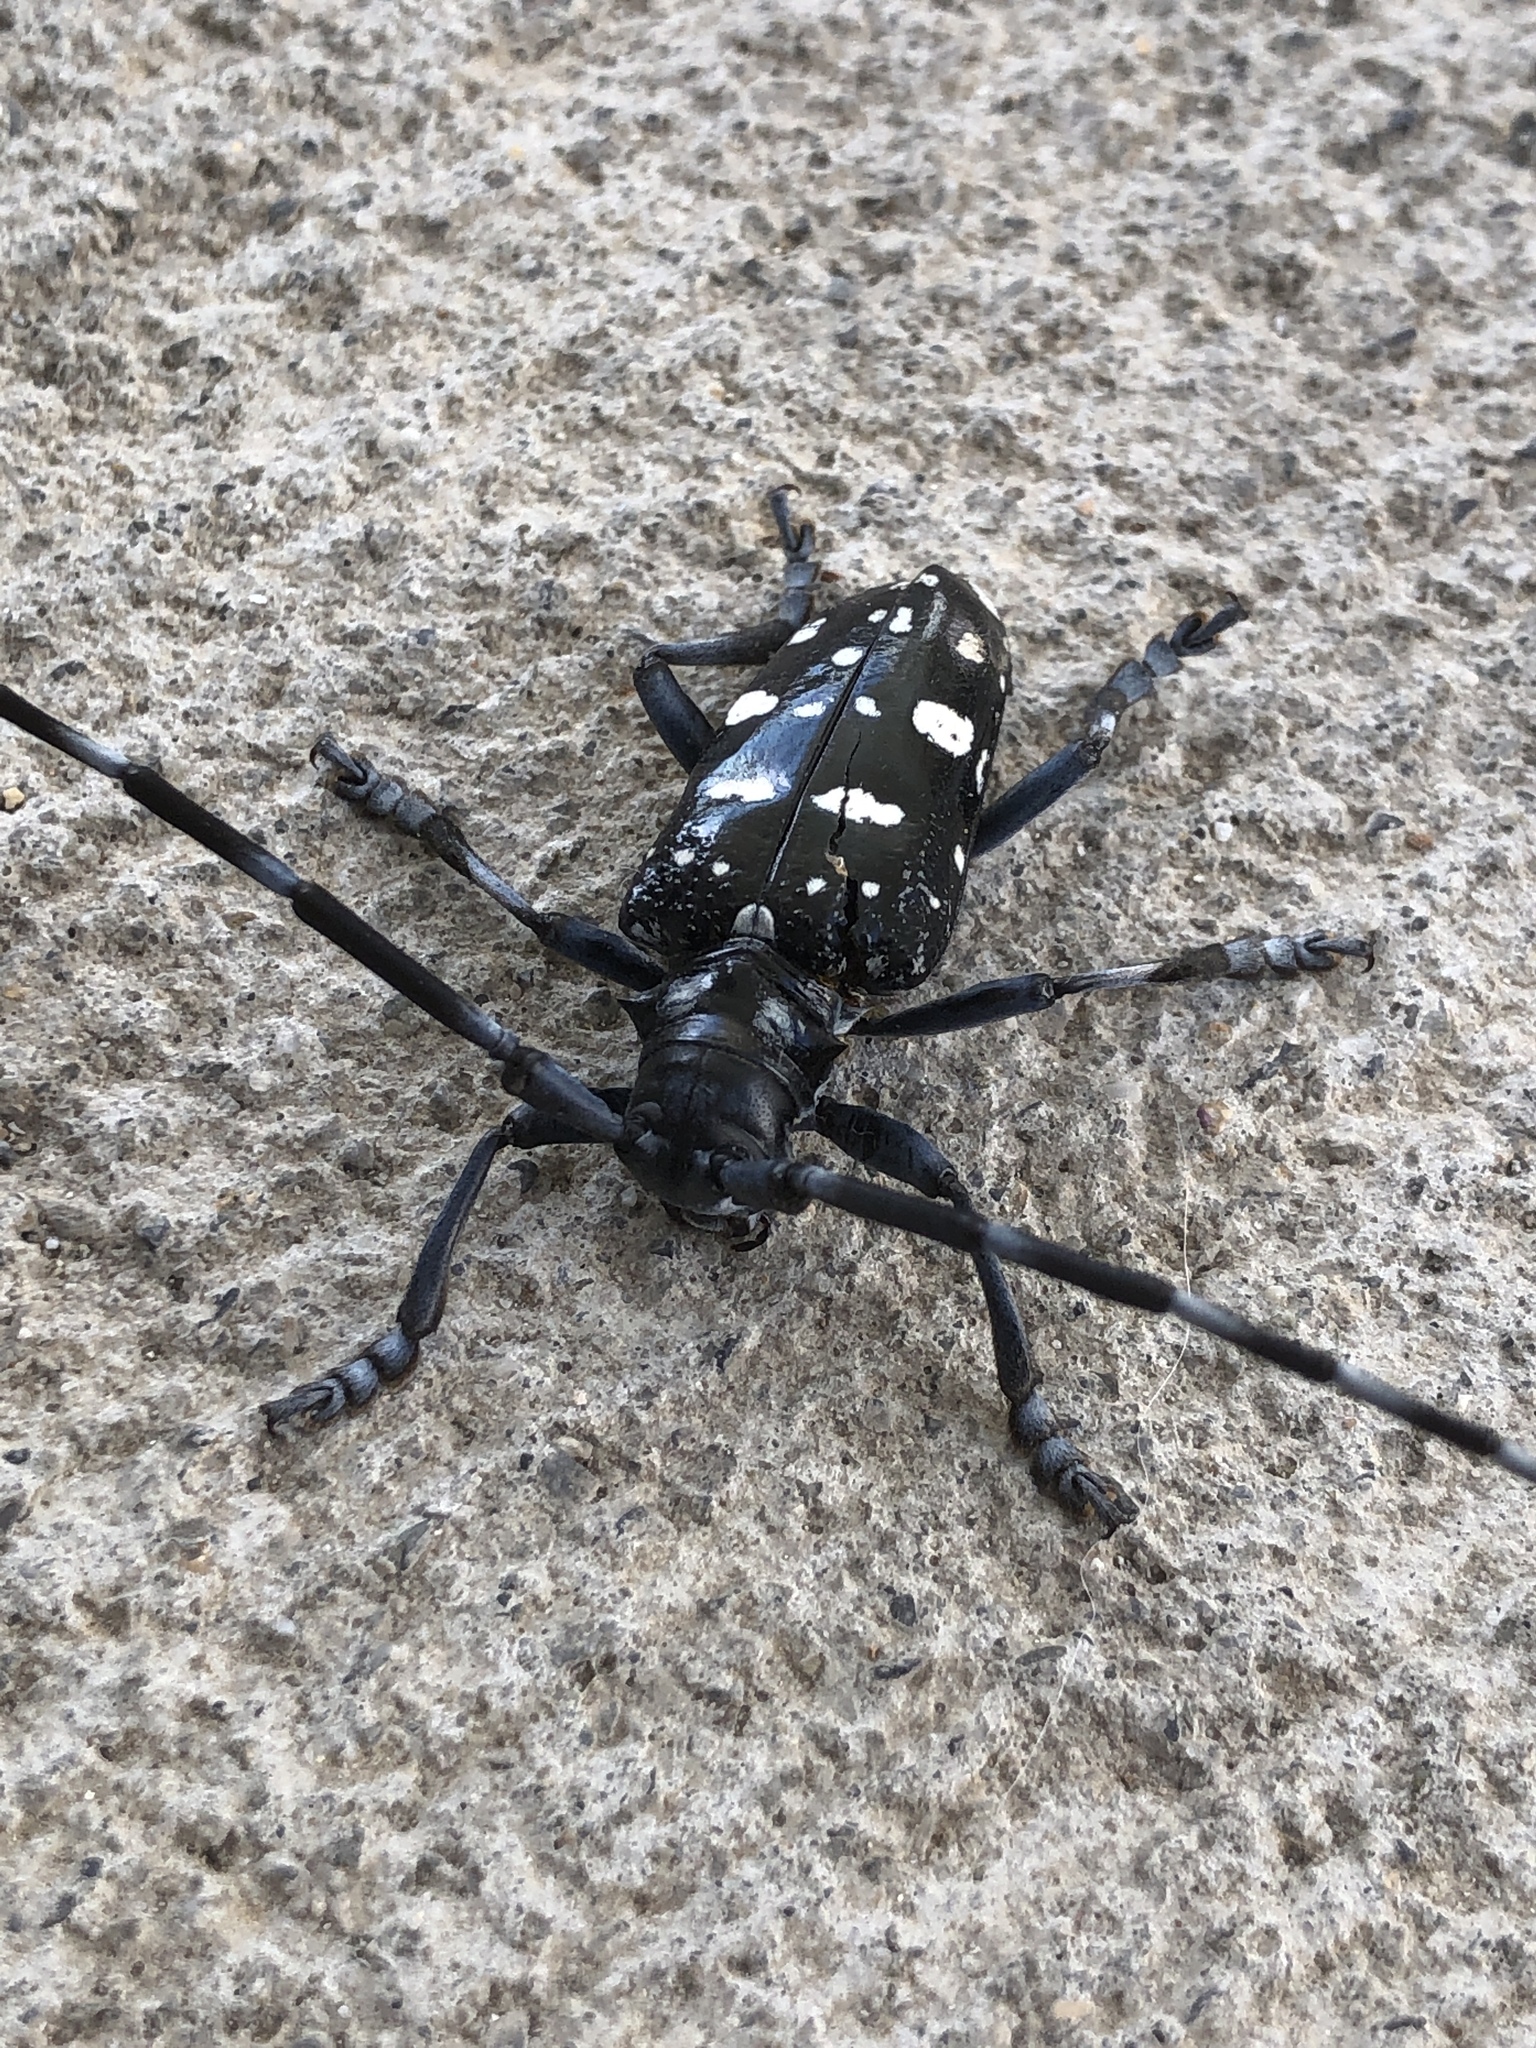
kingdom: Animalia
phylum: Arthropoda
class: Insecta
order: Coleoptera
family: Cerambycidae
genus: Anoplophora
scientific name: Anoplophora oshimana
